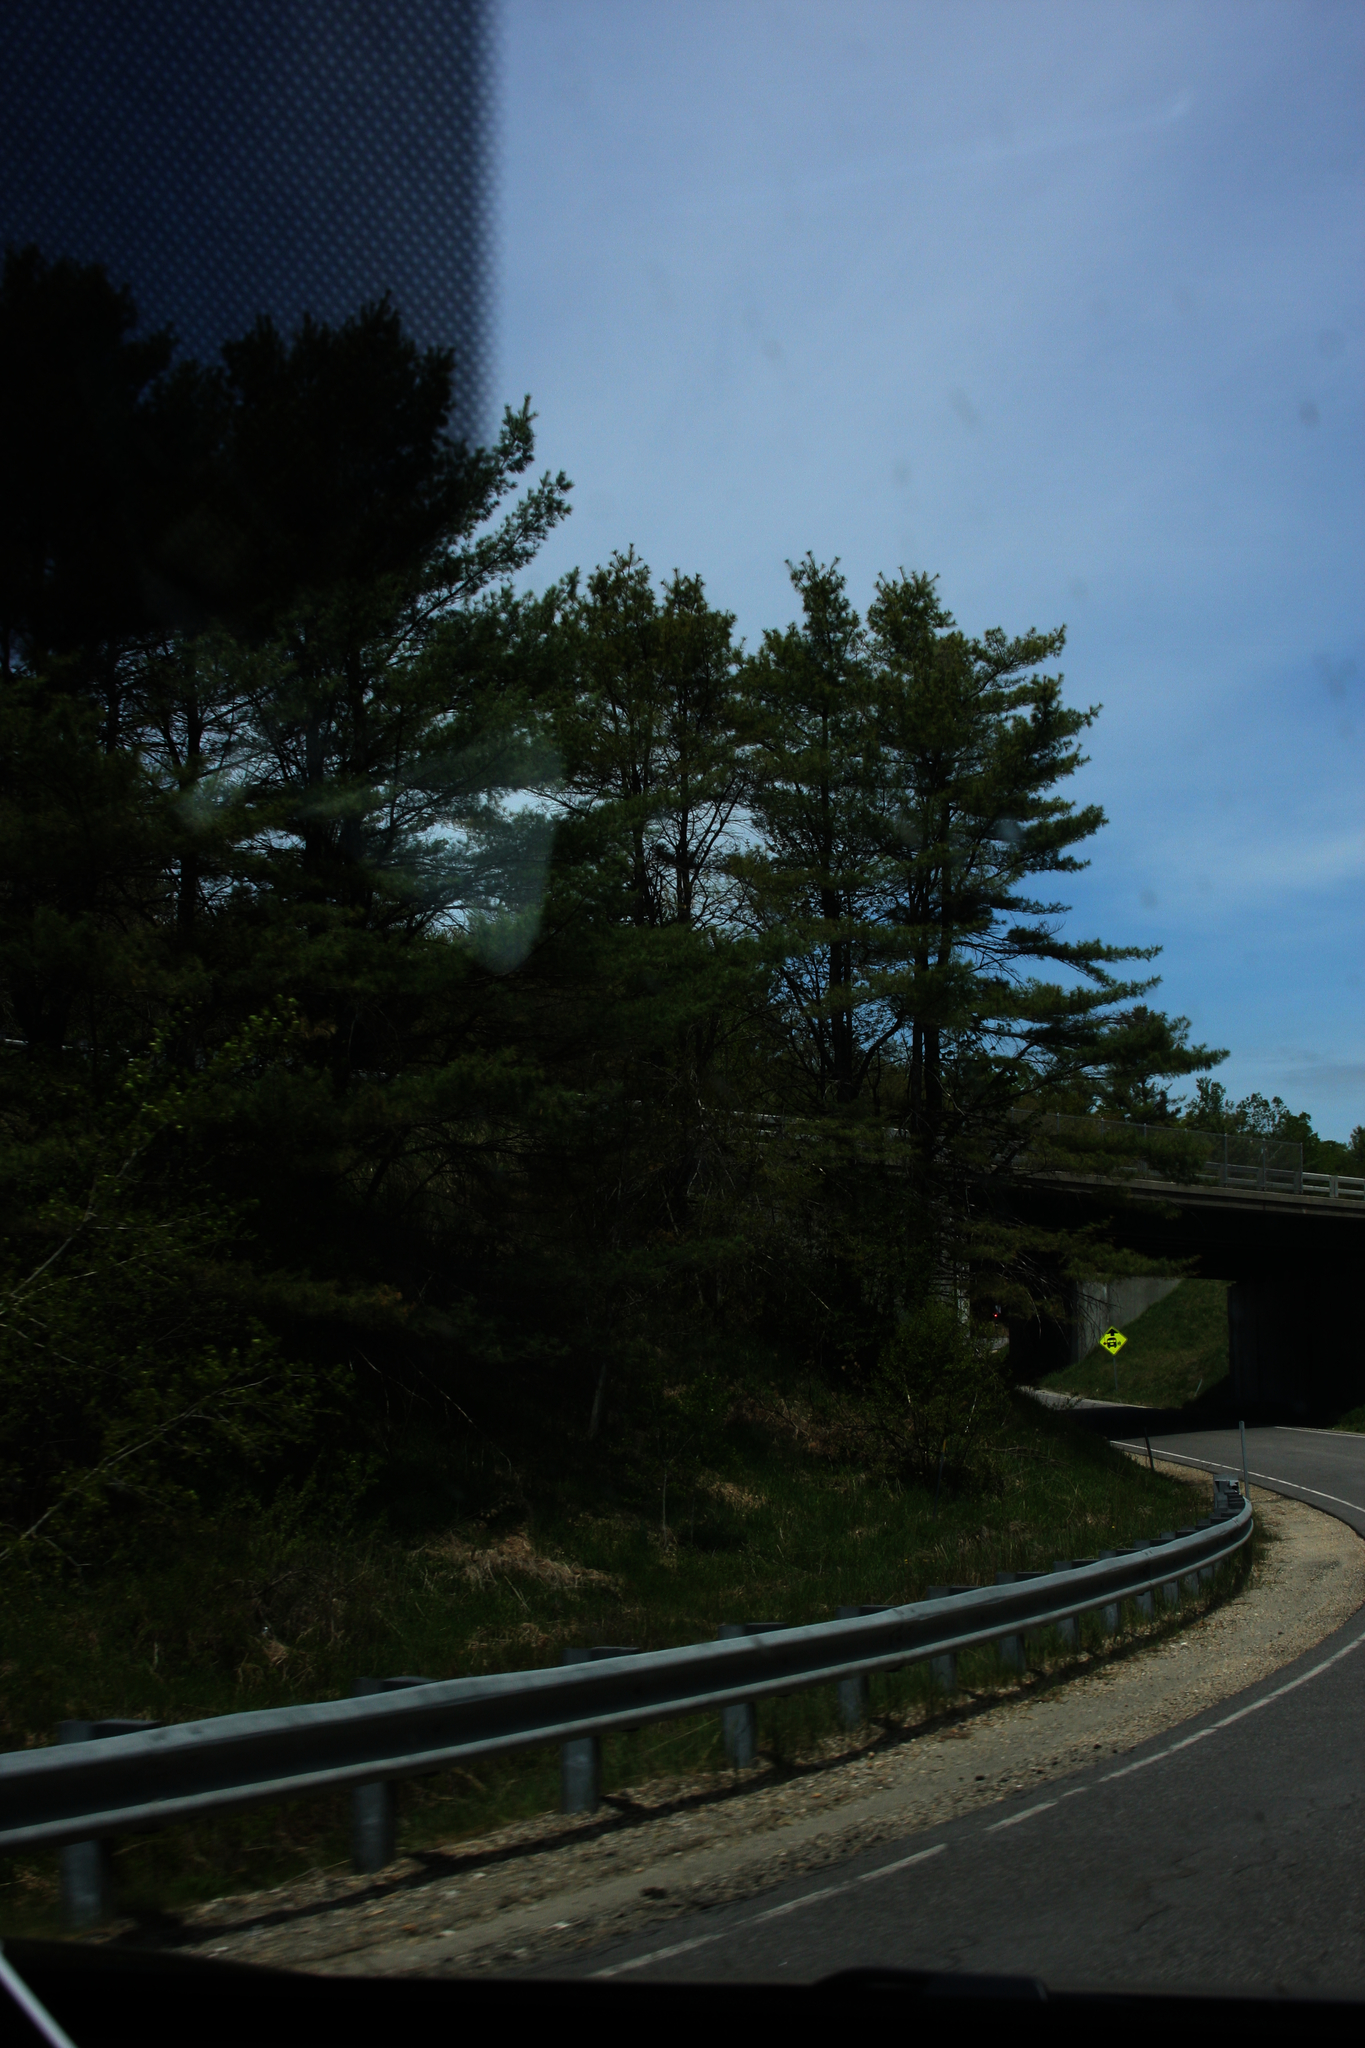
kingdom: Plantae
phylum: Tracheophyta
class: Pinopsida
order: Pinales
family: Pinaceae
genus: Pinus
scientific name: Pinus strobus
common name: Weymouth pine
